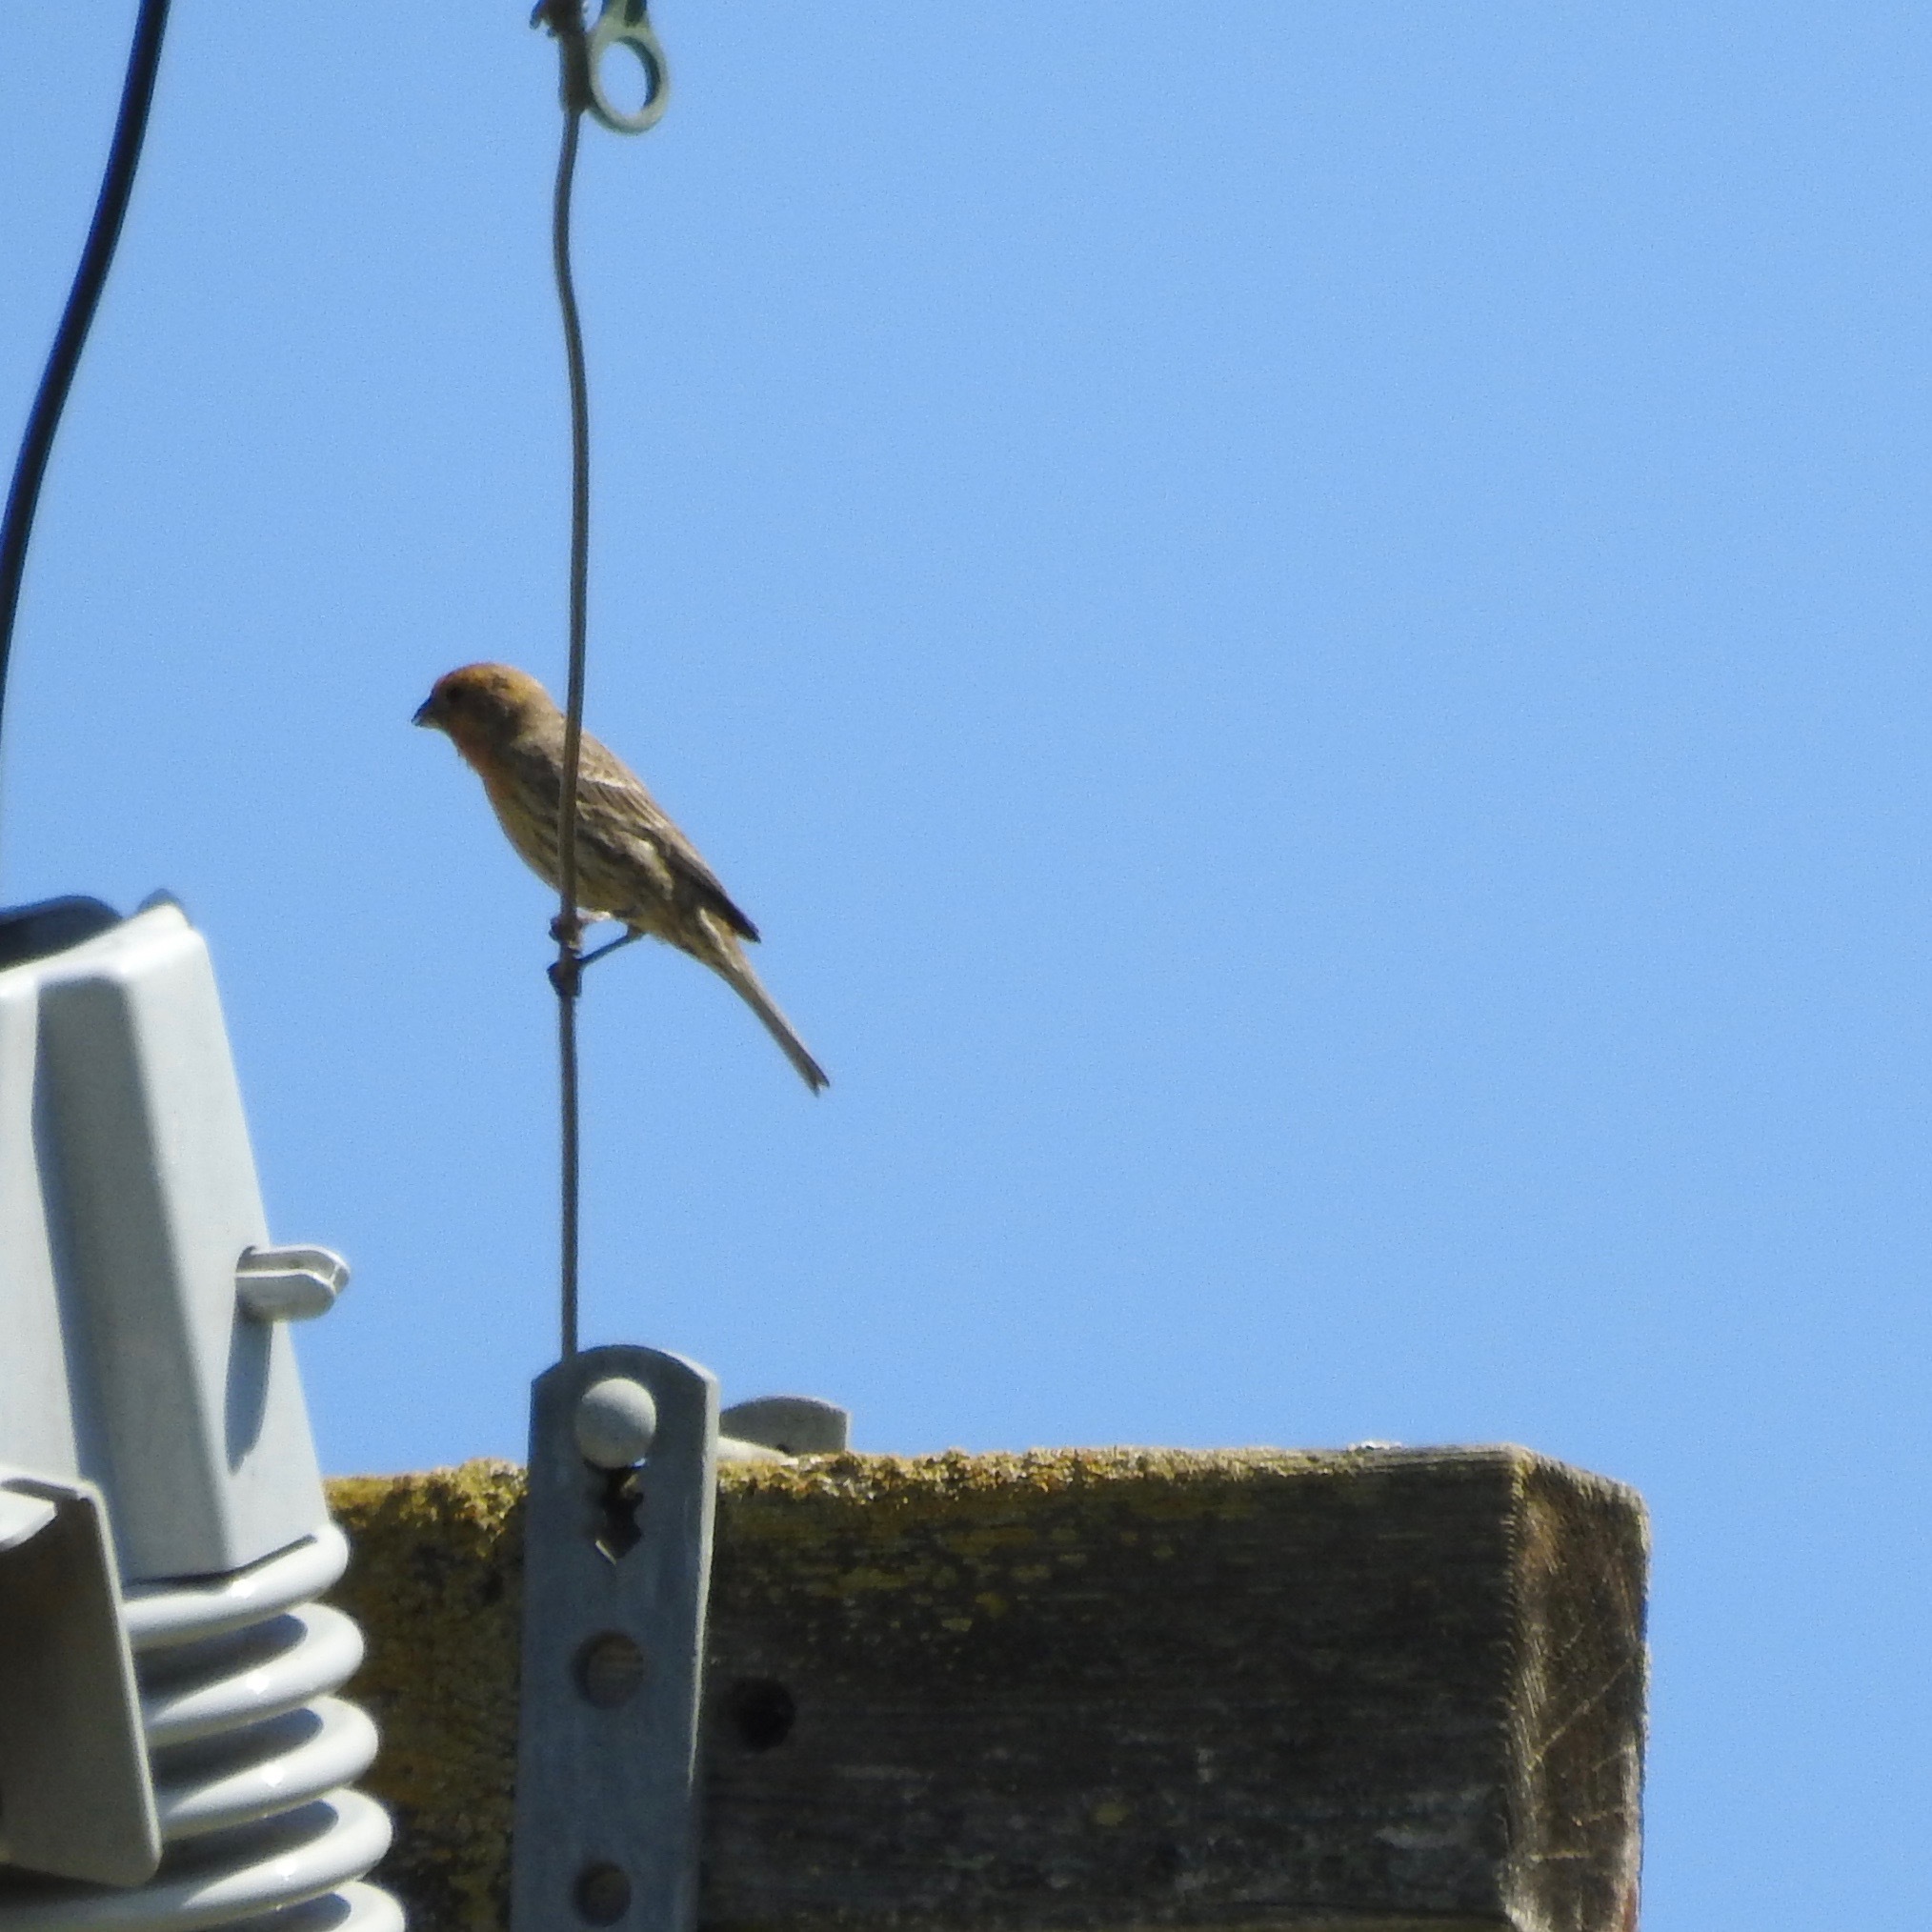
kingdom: Animalia
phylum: Chordata
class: Aves
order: Passeriformes
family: Fringillidae
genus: Haemorhous
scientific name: Haemorhous mexicanus
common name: House finch
